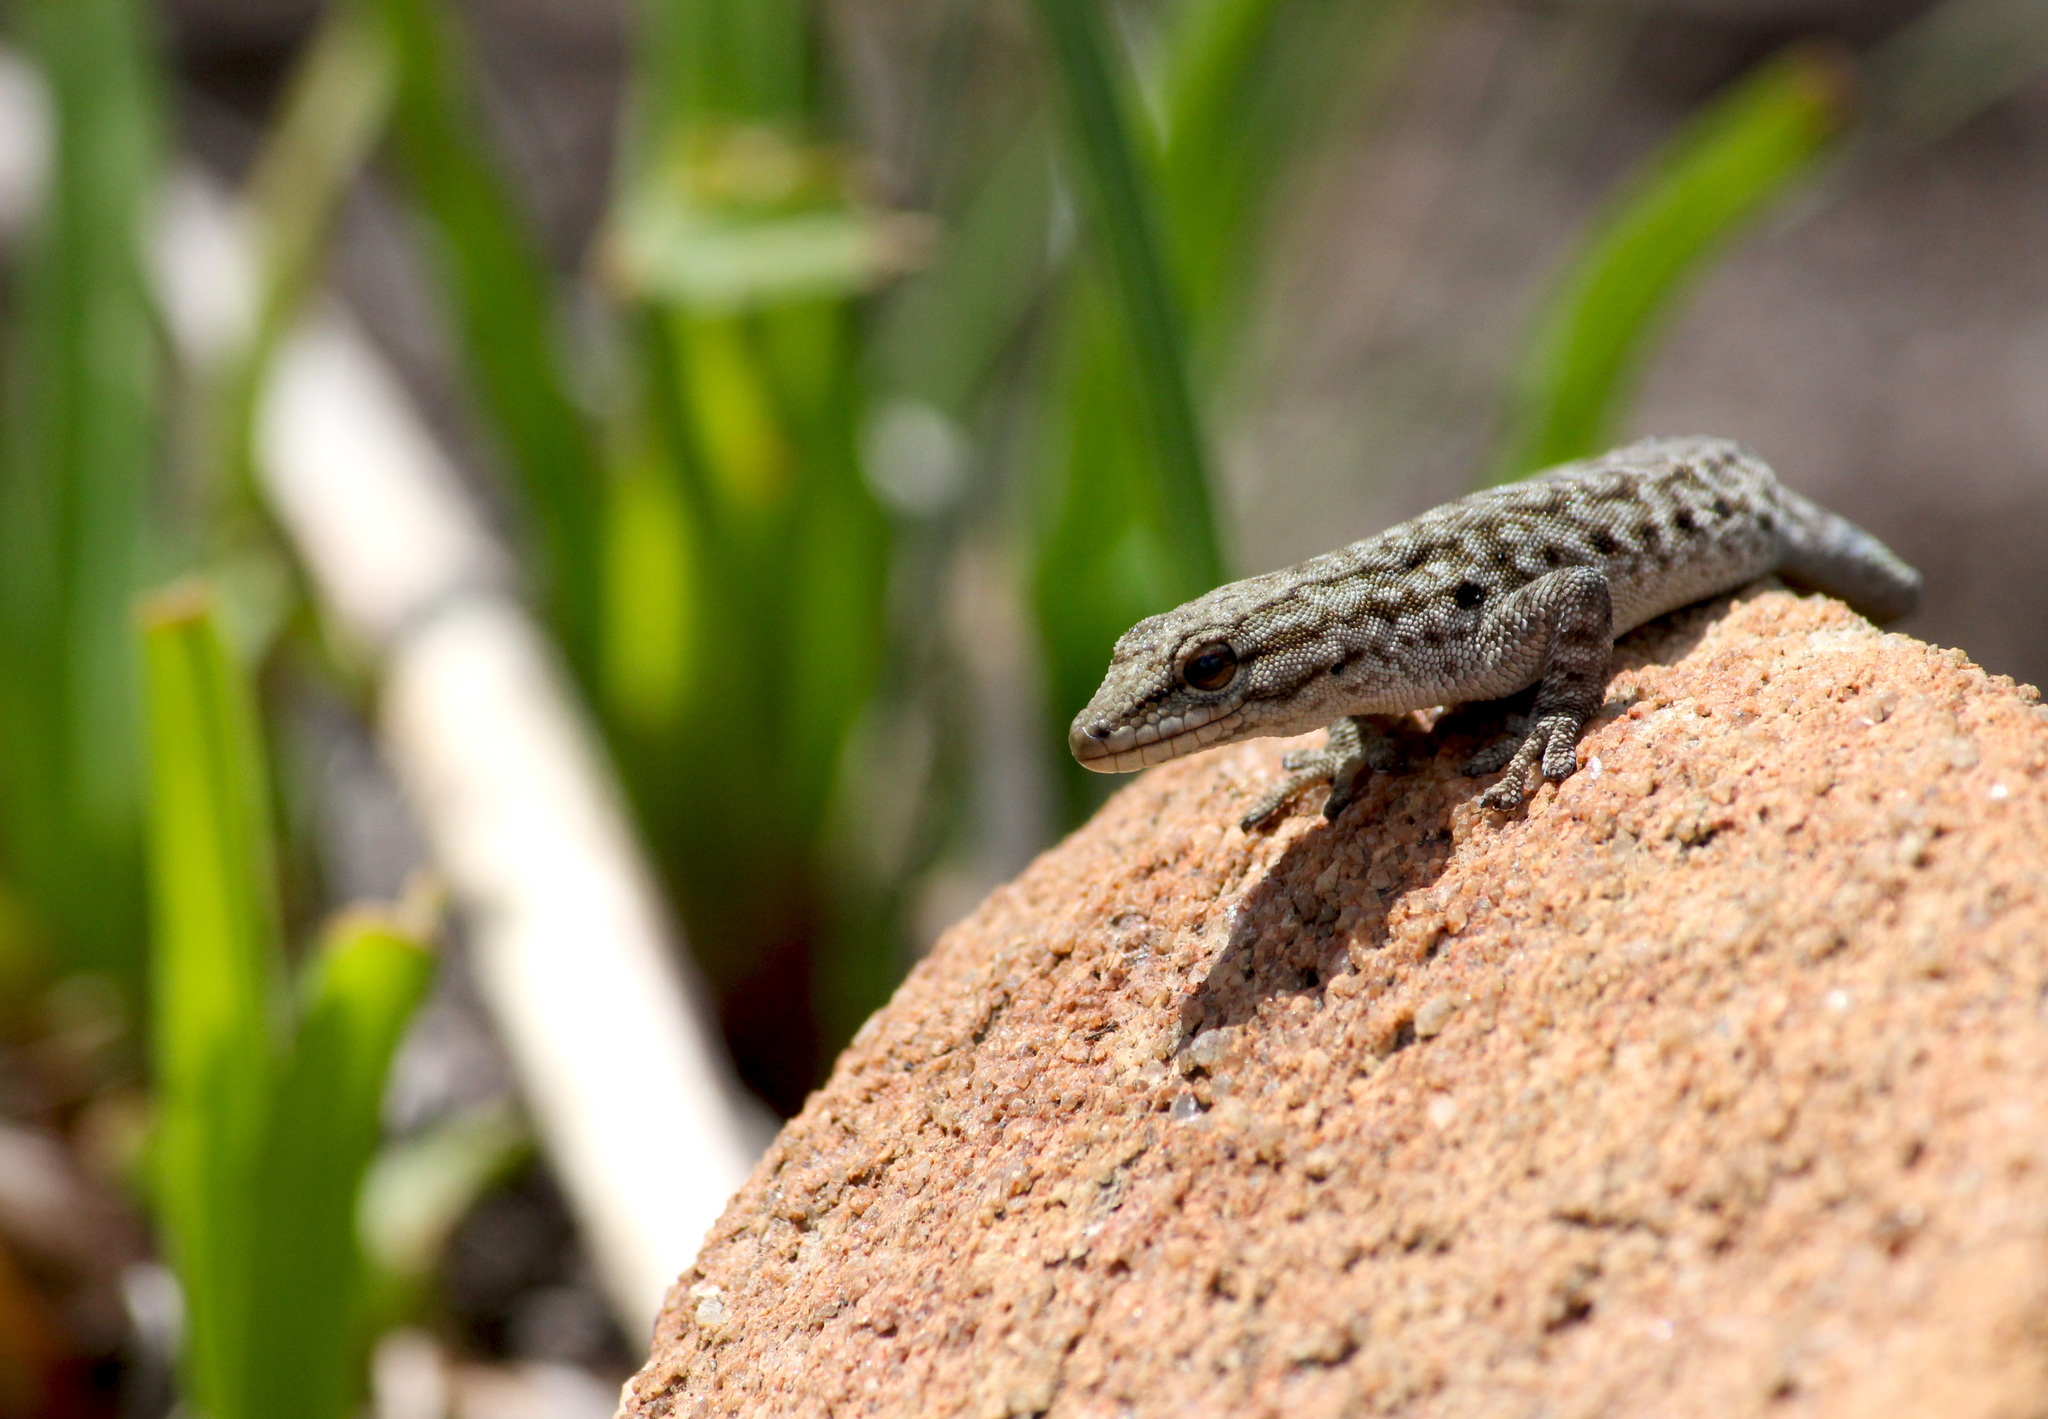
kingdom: Animalia
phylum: Chordata
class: Squamata
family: Gekkonidae
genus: Lygodactylus
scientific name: Lygodactylus methueni
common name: Methuen's dwarf gecko
